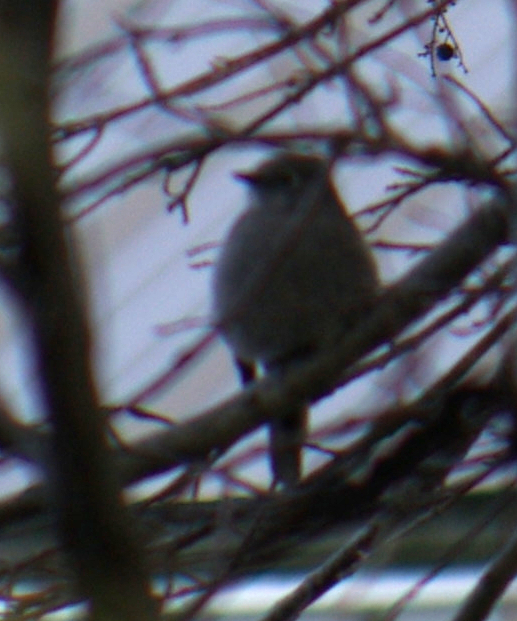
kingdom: Animalia
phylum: Chordata
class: Aves
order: Passeriformes
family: Turdidae
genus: Myadestes
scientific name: Myadestes townsendi
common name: Townsend's solitaire
